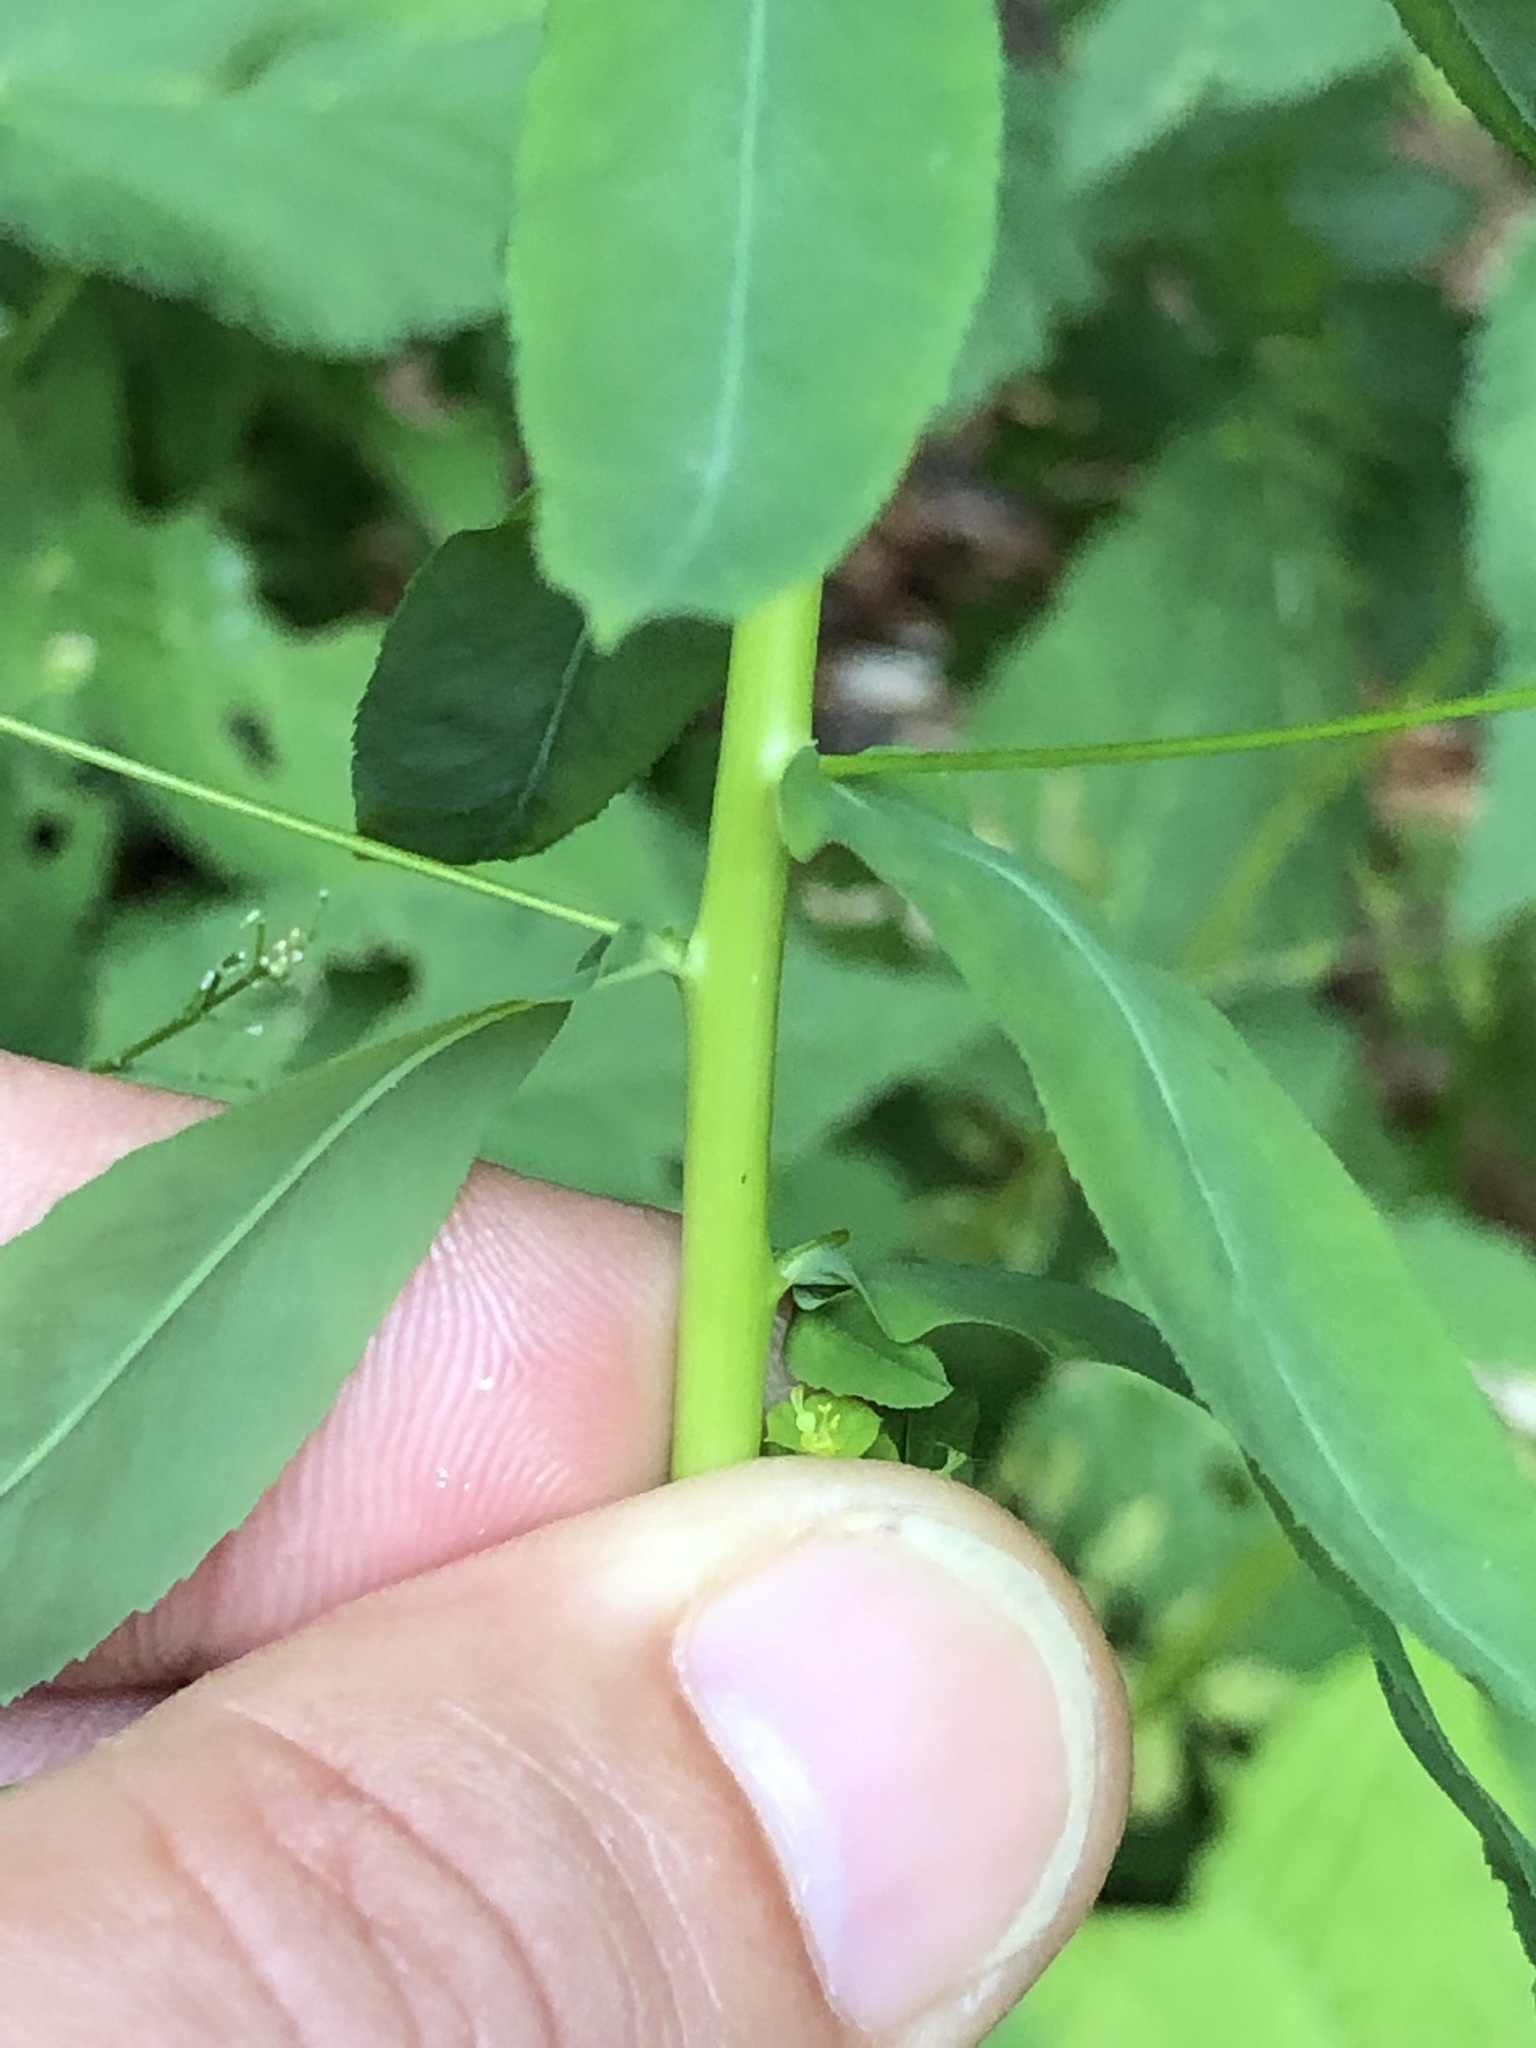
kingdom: Plantae
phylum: Tracheophyta
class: Magnoliopsida
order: Malpighiales
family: Euphorbiaceae
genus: Euphorbia
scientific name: Euphorbia stricta
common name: Upright spurge
